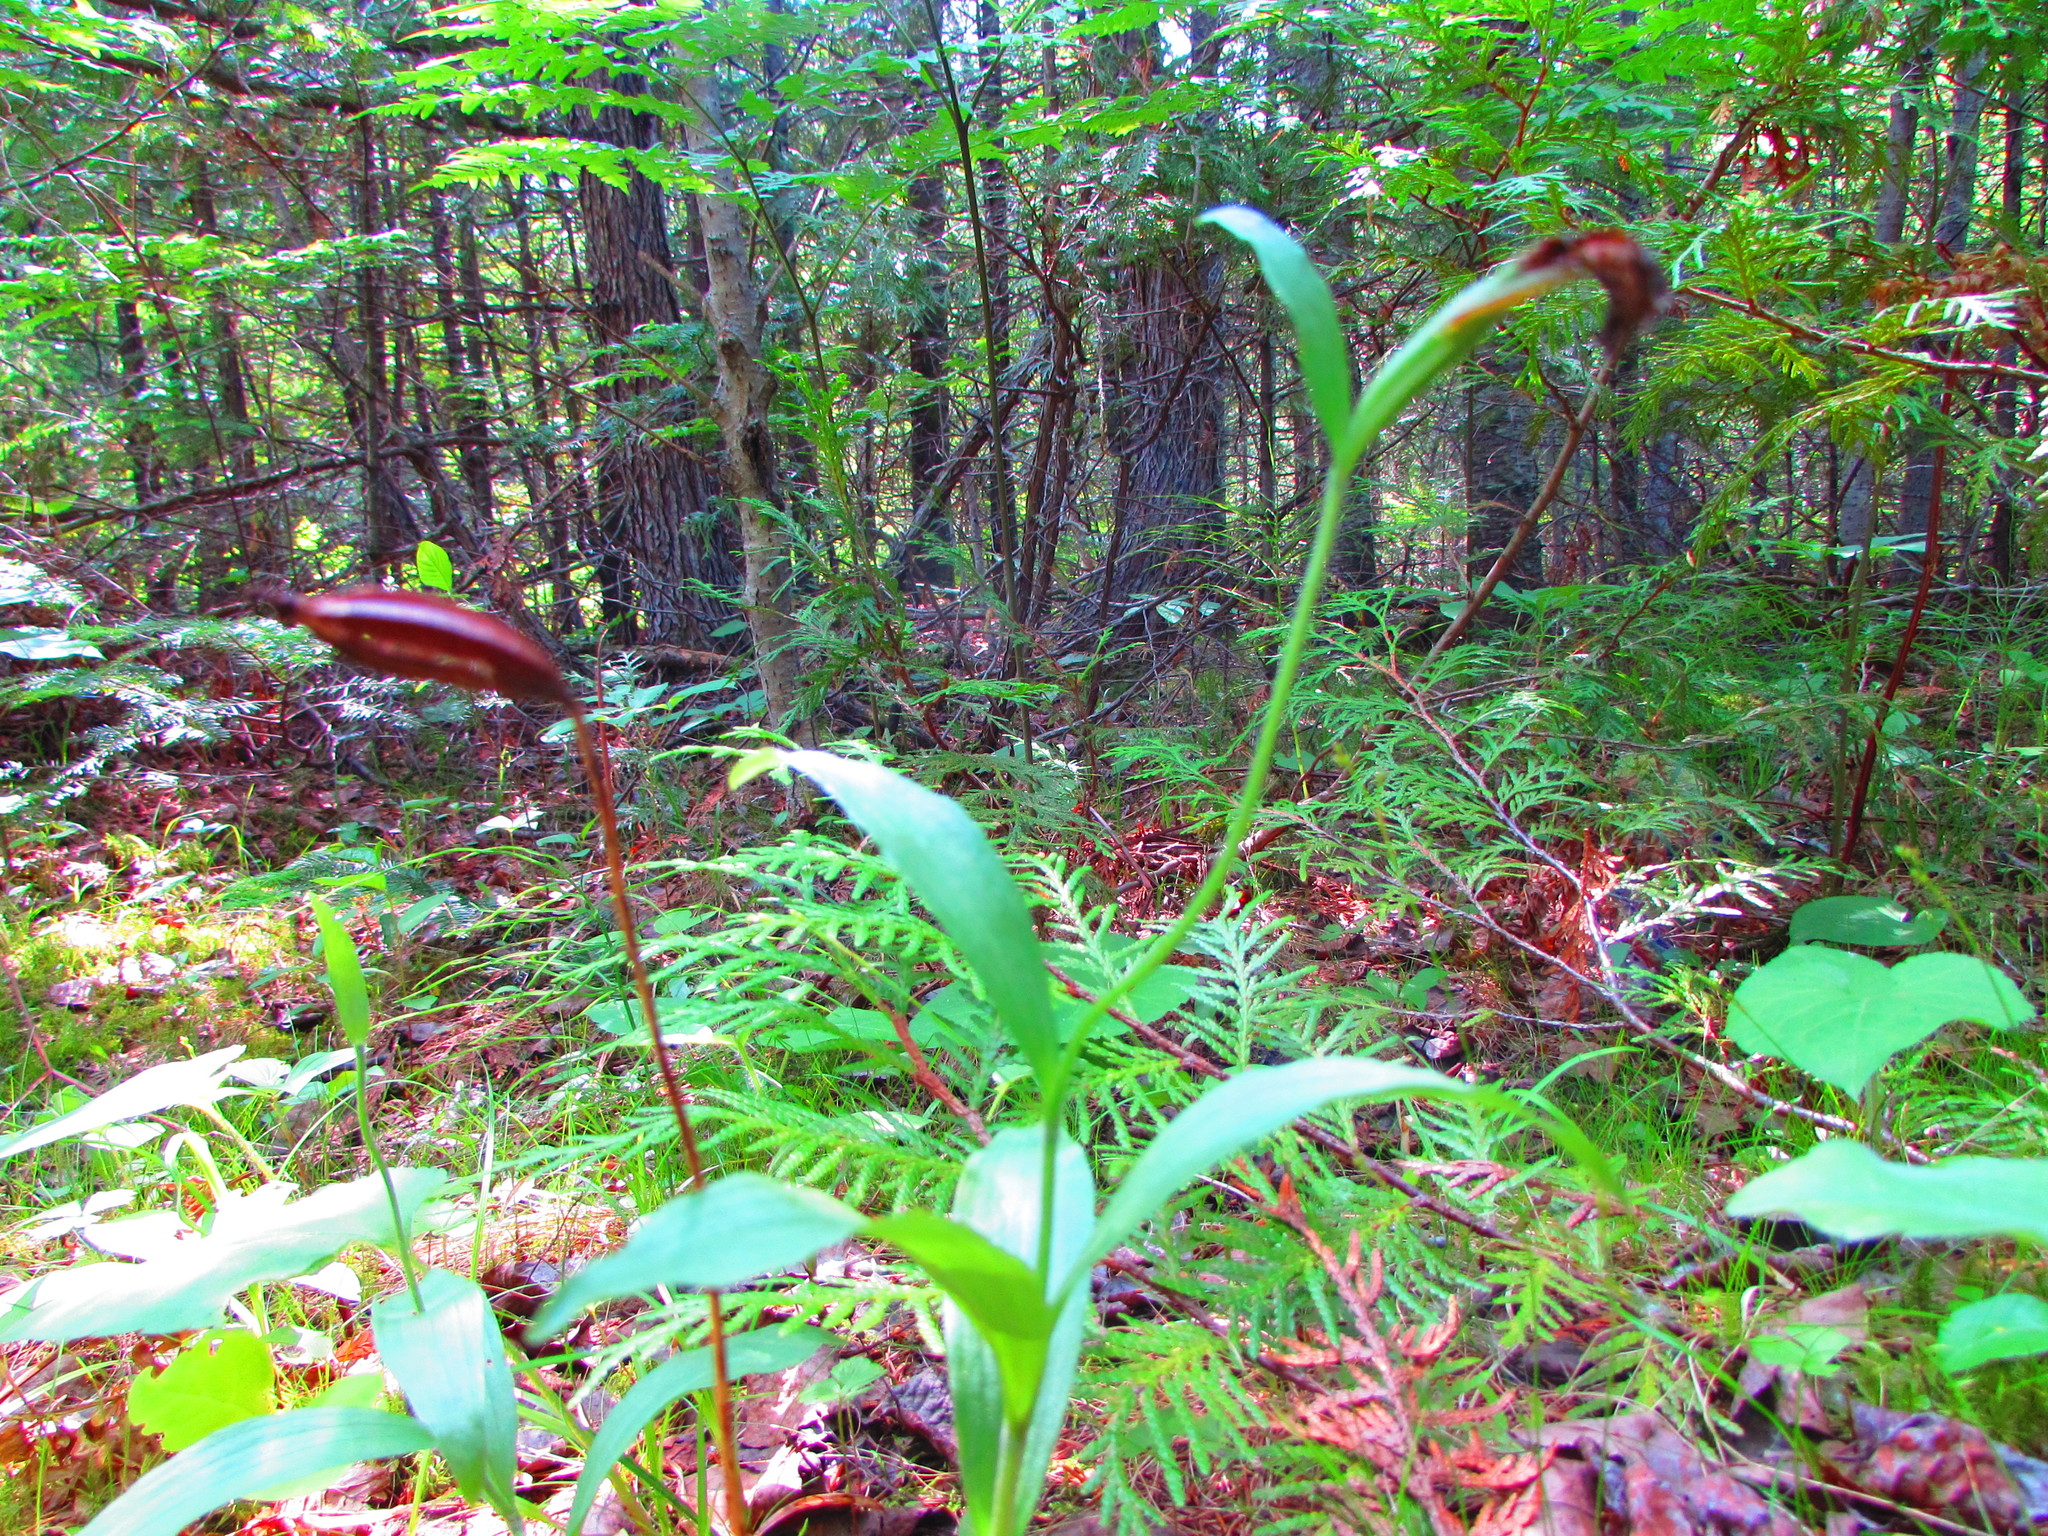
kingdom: Plantae
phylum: Tracheophyta
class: Liliopsida
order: Asparagales
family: Orchidaceae
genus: Cypripedium
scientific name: Cypripedium arietinum
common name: Ram's-head
